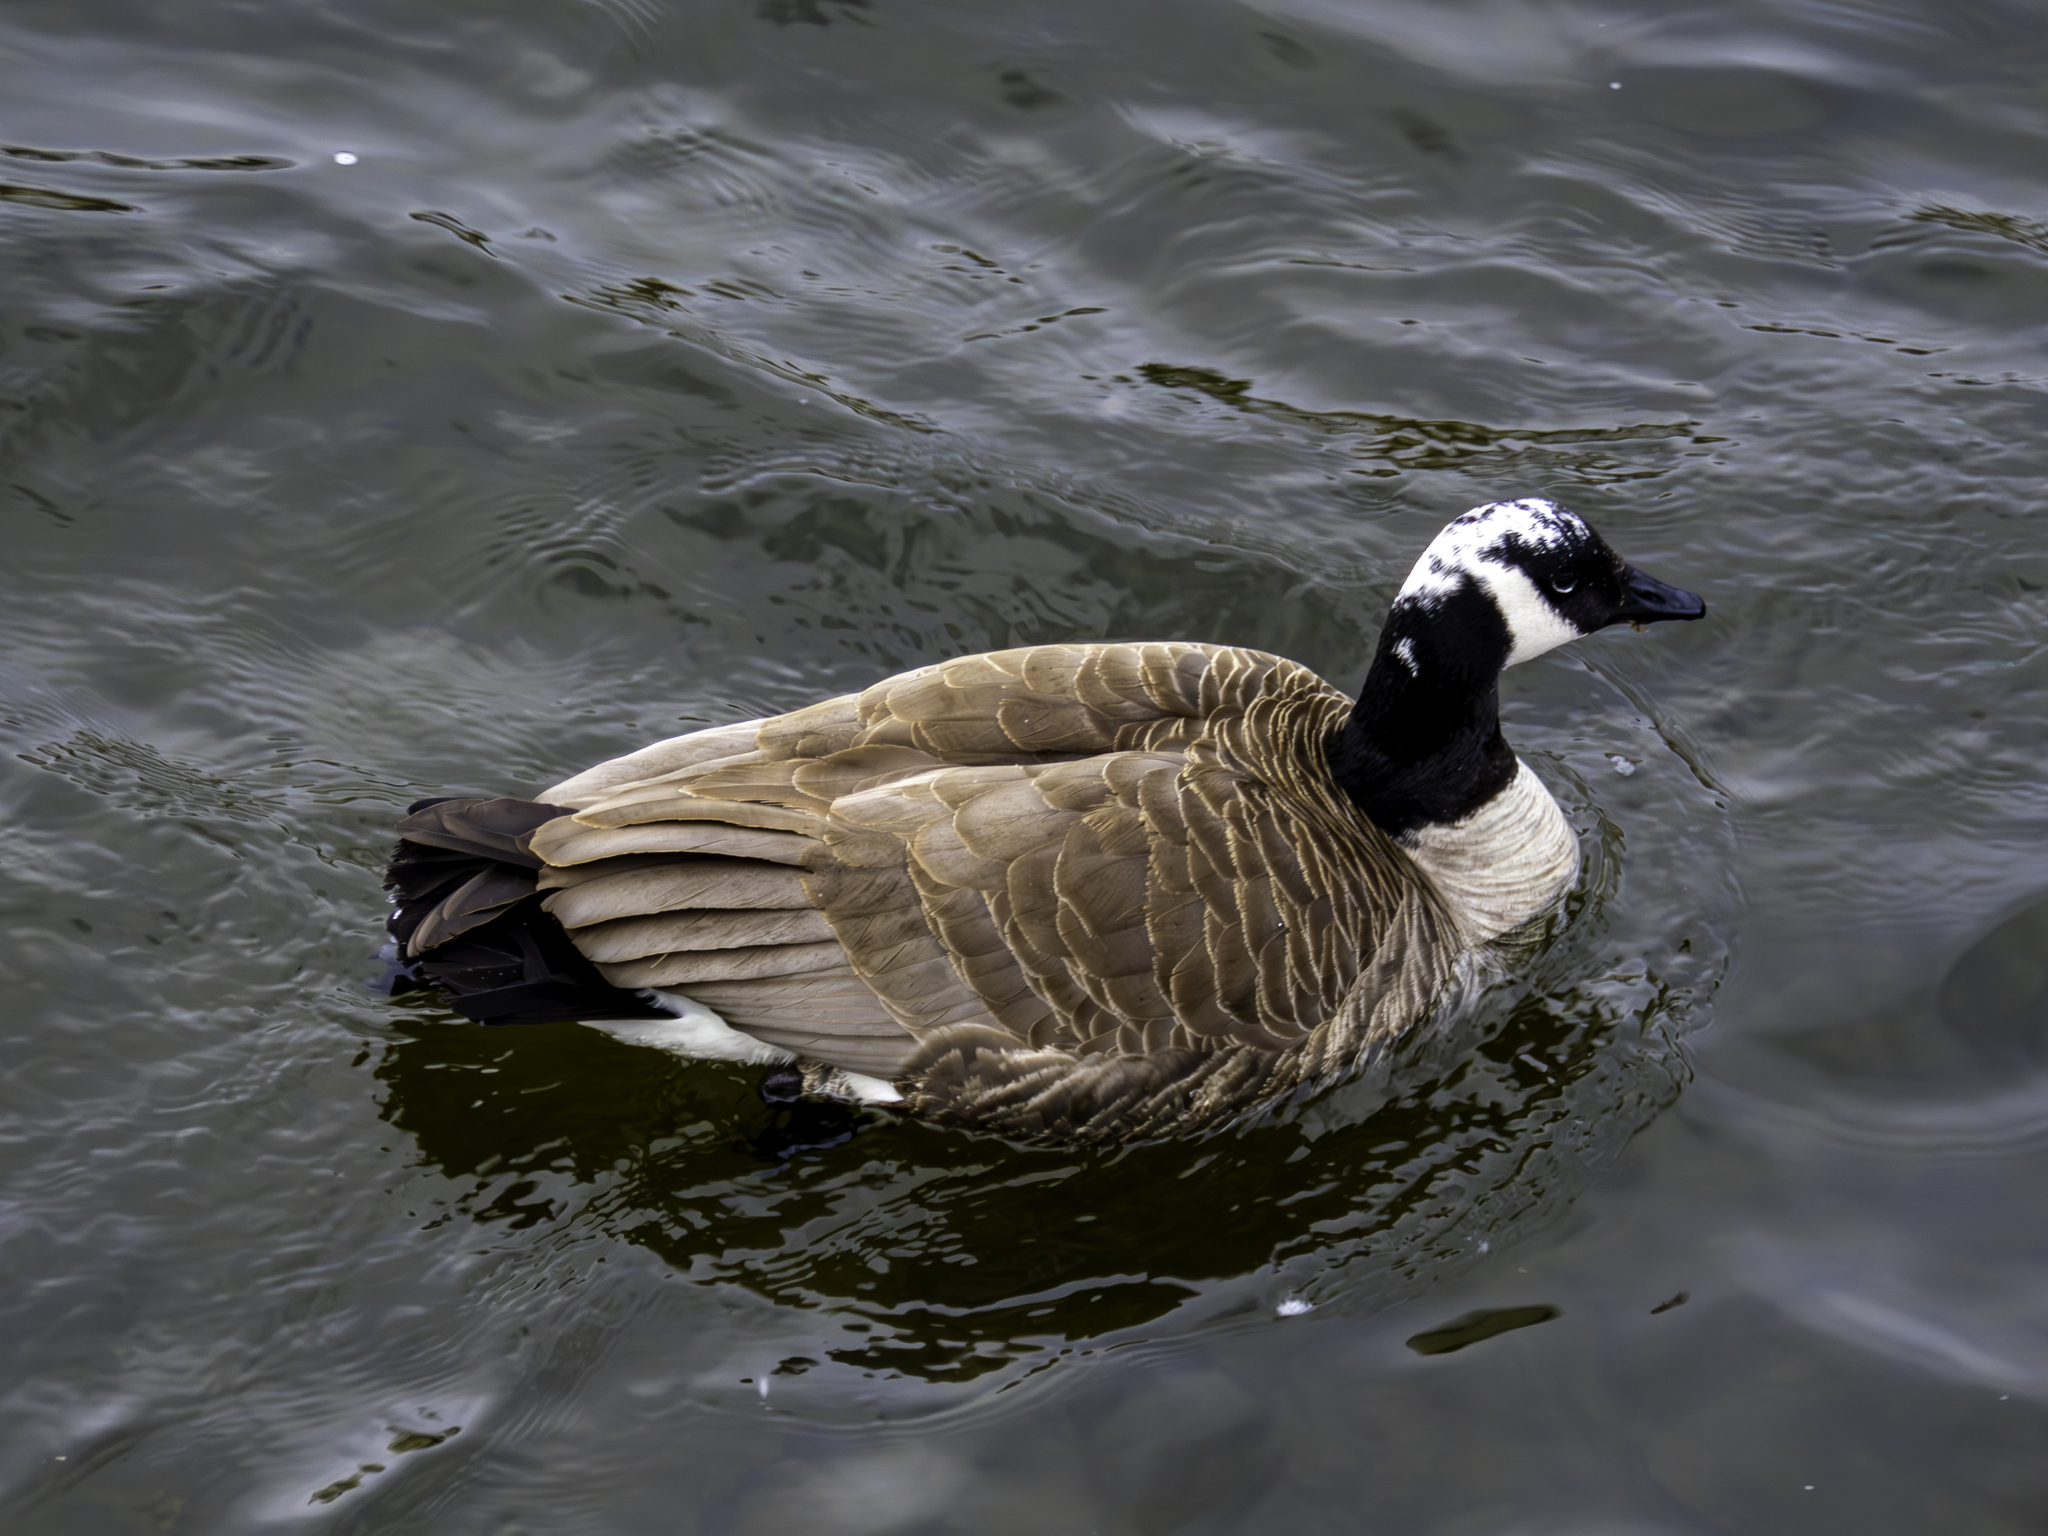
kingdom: Animalia
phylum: Chordata
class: Aves
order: Anseriformes
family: Anatidae
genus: Branta
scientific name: Branta canadensis
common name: Canada goose
